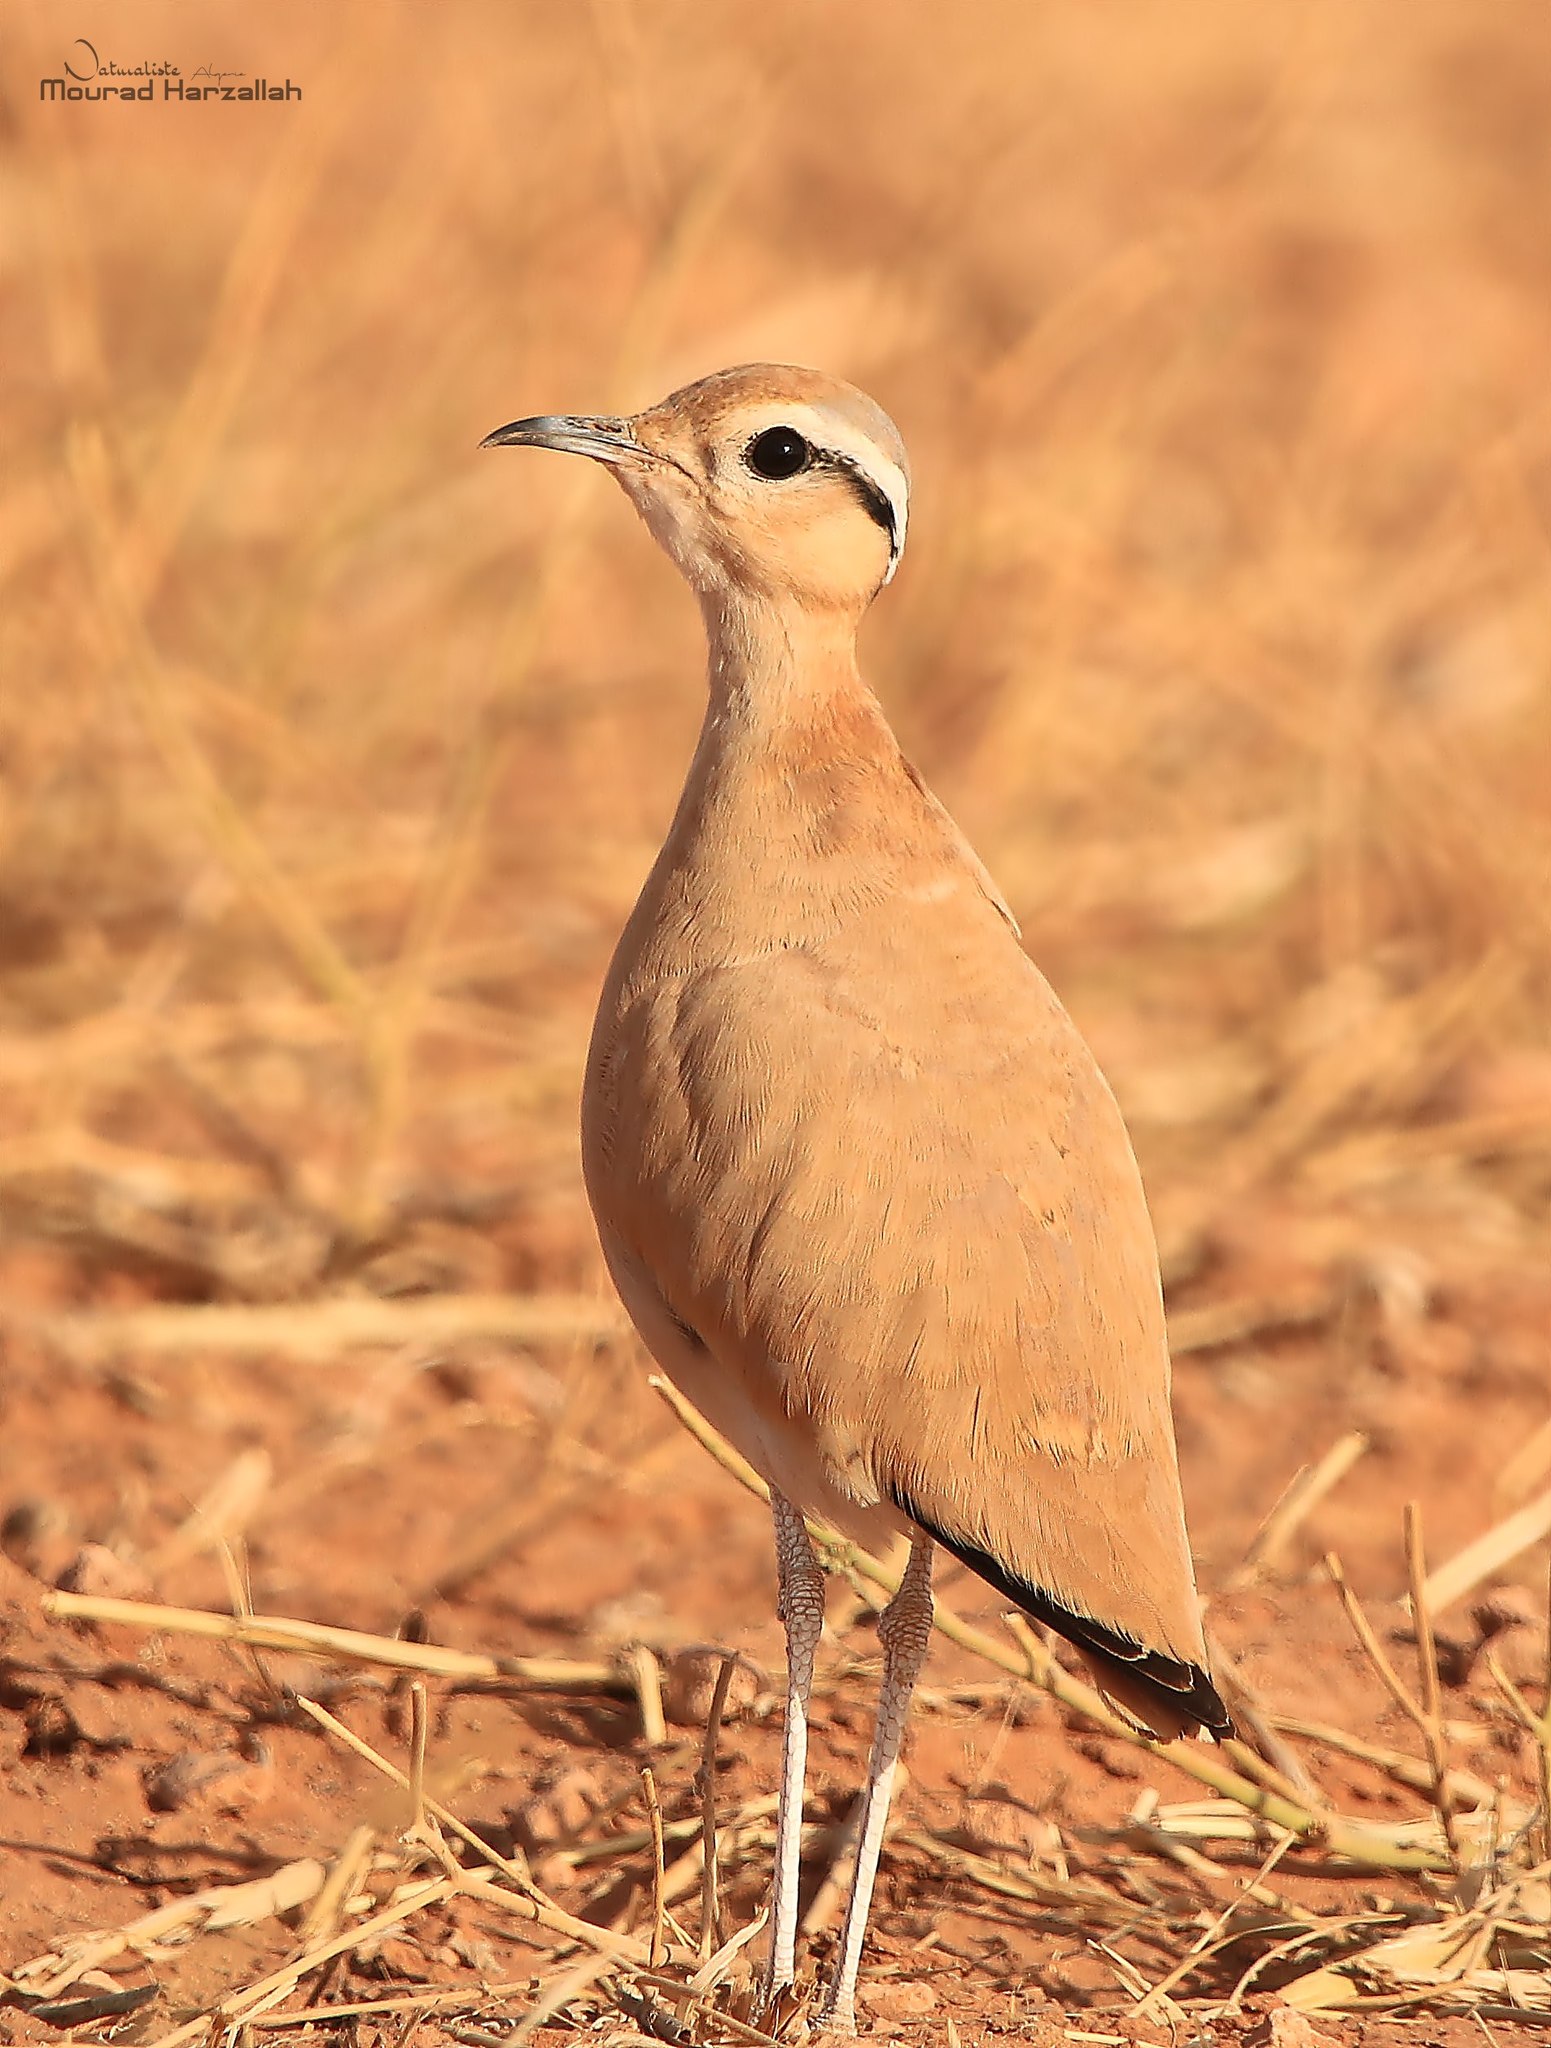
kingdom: Animalia
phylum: Chordata
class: Aves
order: Charadriiformes
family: Glareolidae
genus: Cursorius
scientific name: Cursorius cursor
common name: Cream-colored courser
